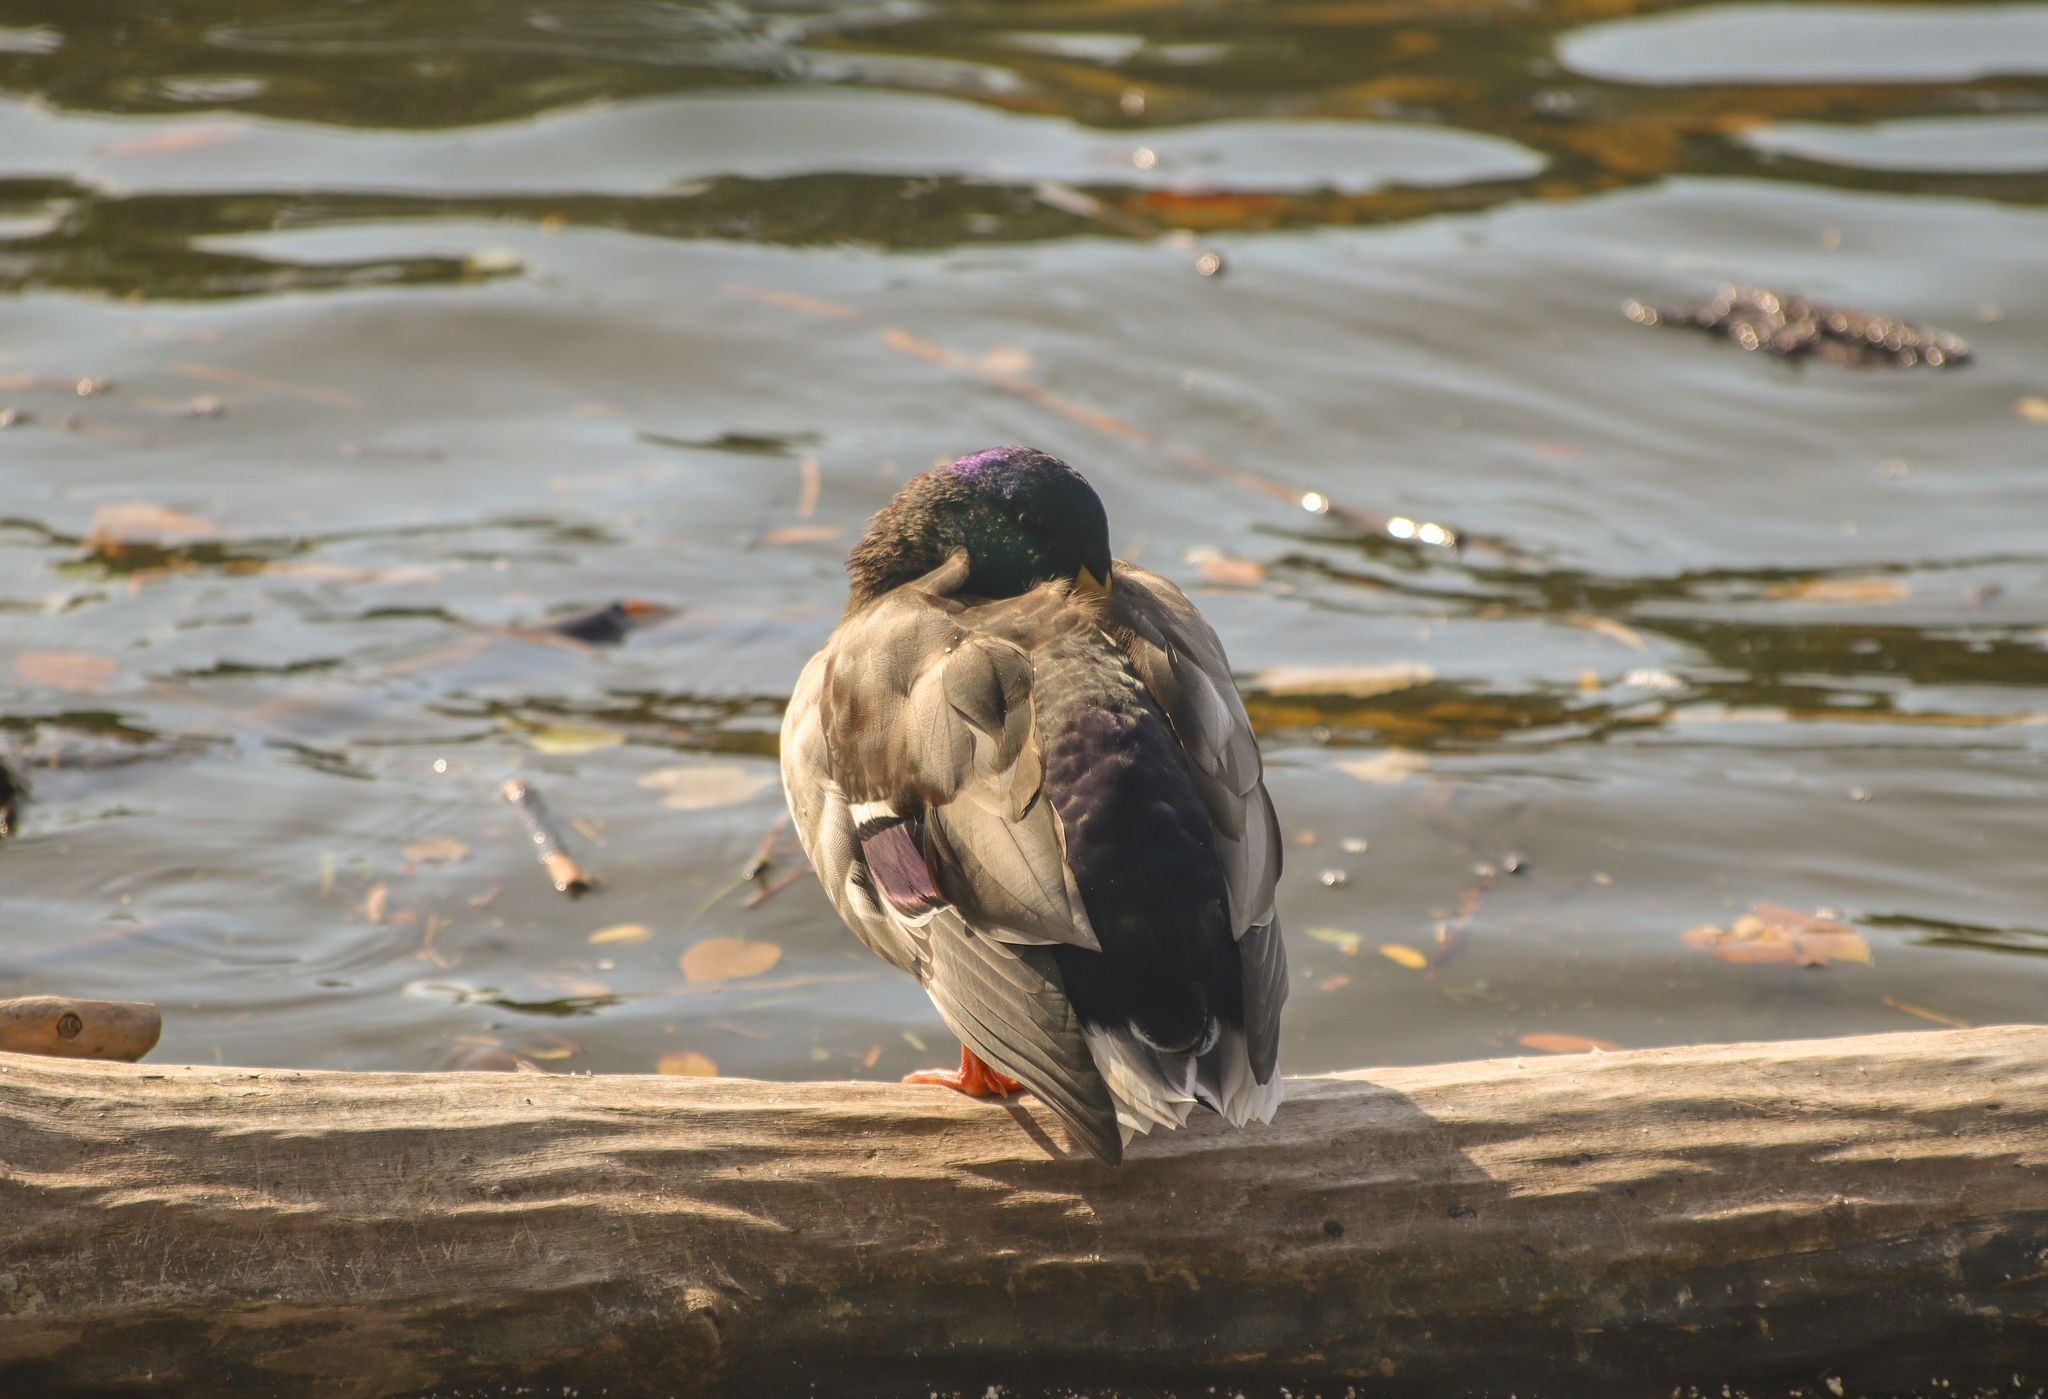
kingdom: Animalia
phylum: Chordata
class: Aves
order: Anseriformes
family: Anatidae
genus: Anas
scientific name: Anas platyrhynchos
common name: Mallard
